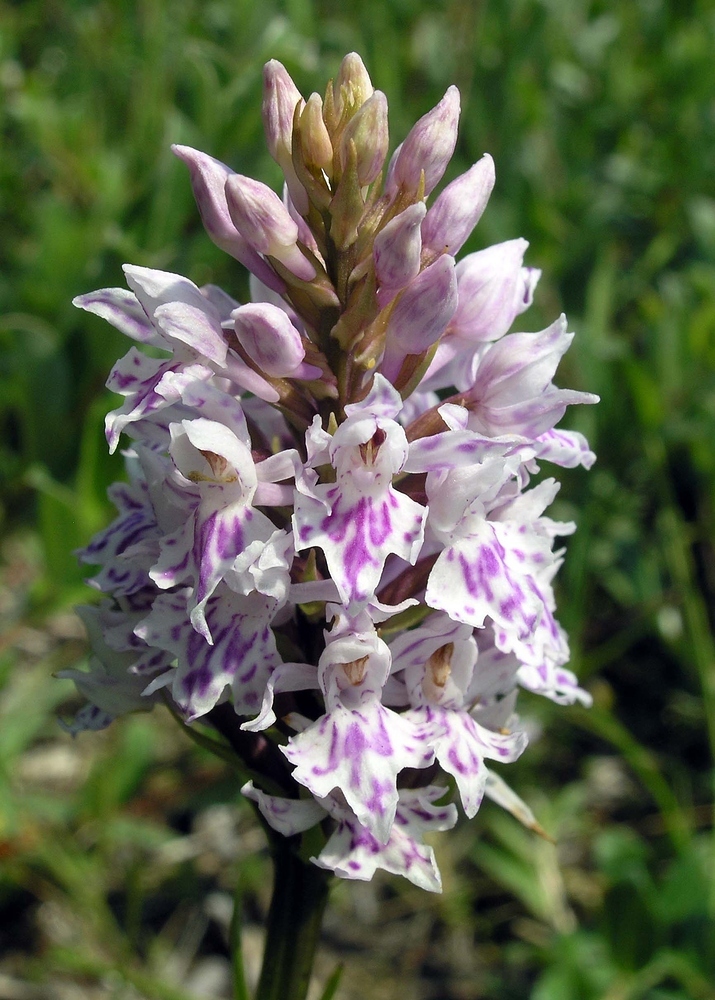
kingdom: Plantae
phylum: Tracheophyta
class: Liliopsida
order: Asparagales
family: Orchidaceae
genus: Dactylorhiza
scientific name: Dactylorhiza maculata
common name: Heath spotted-orchid
